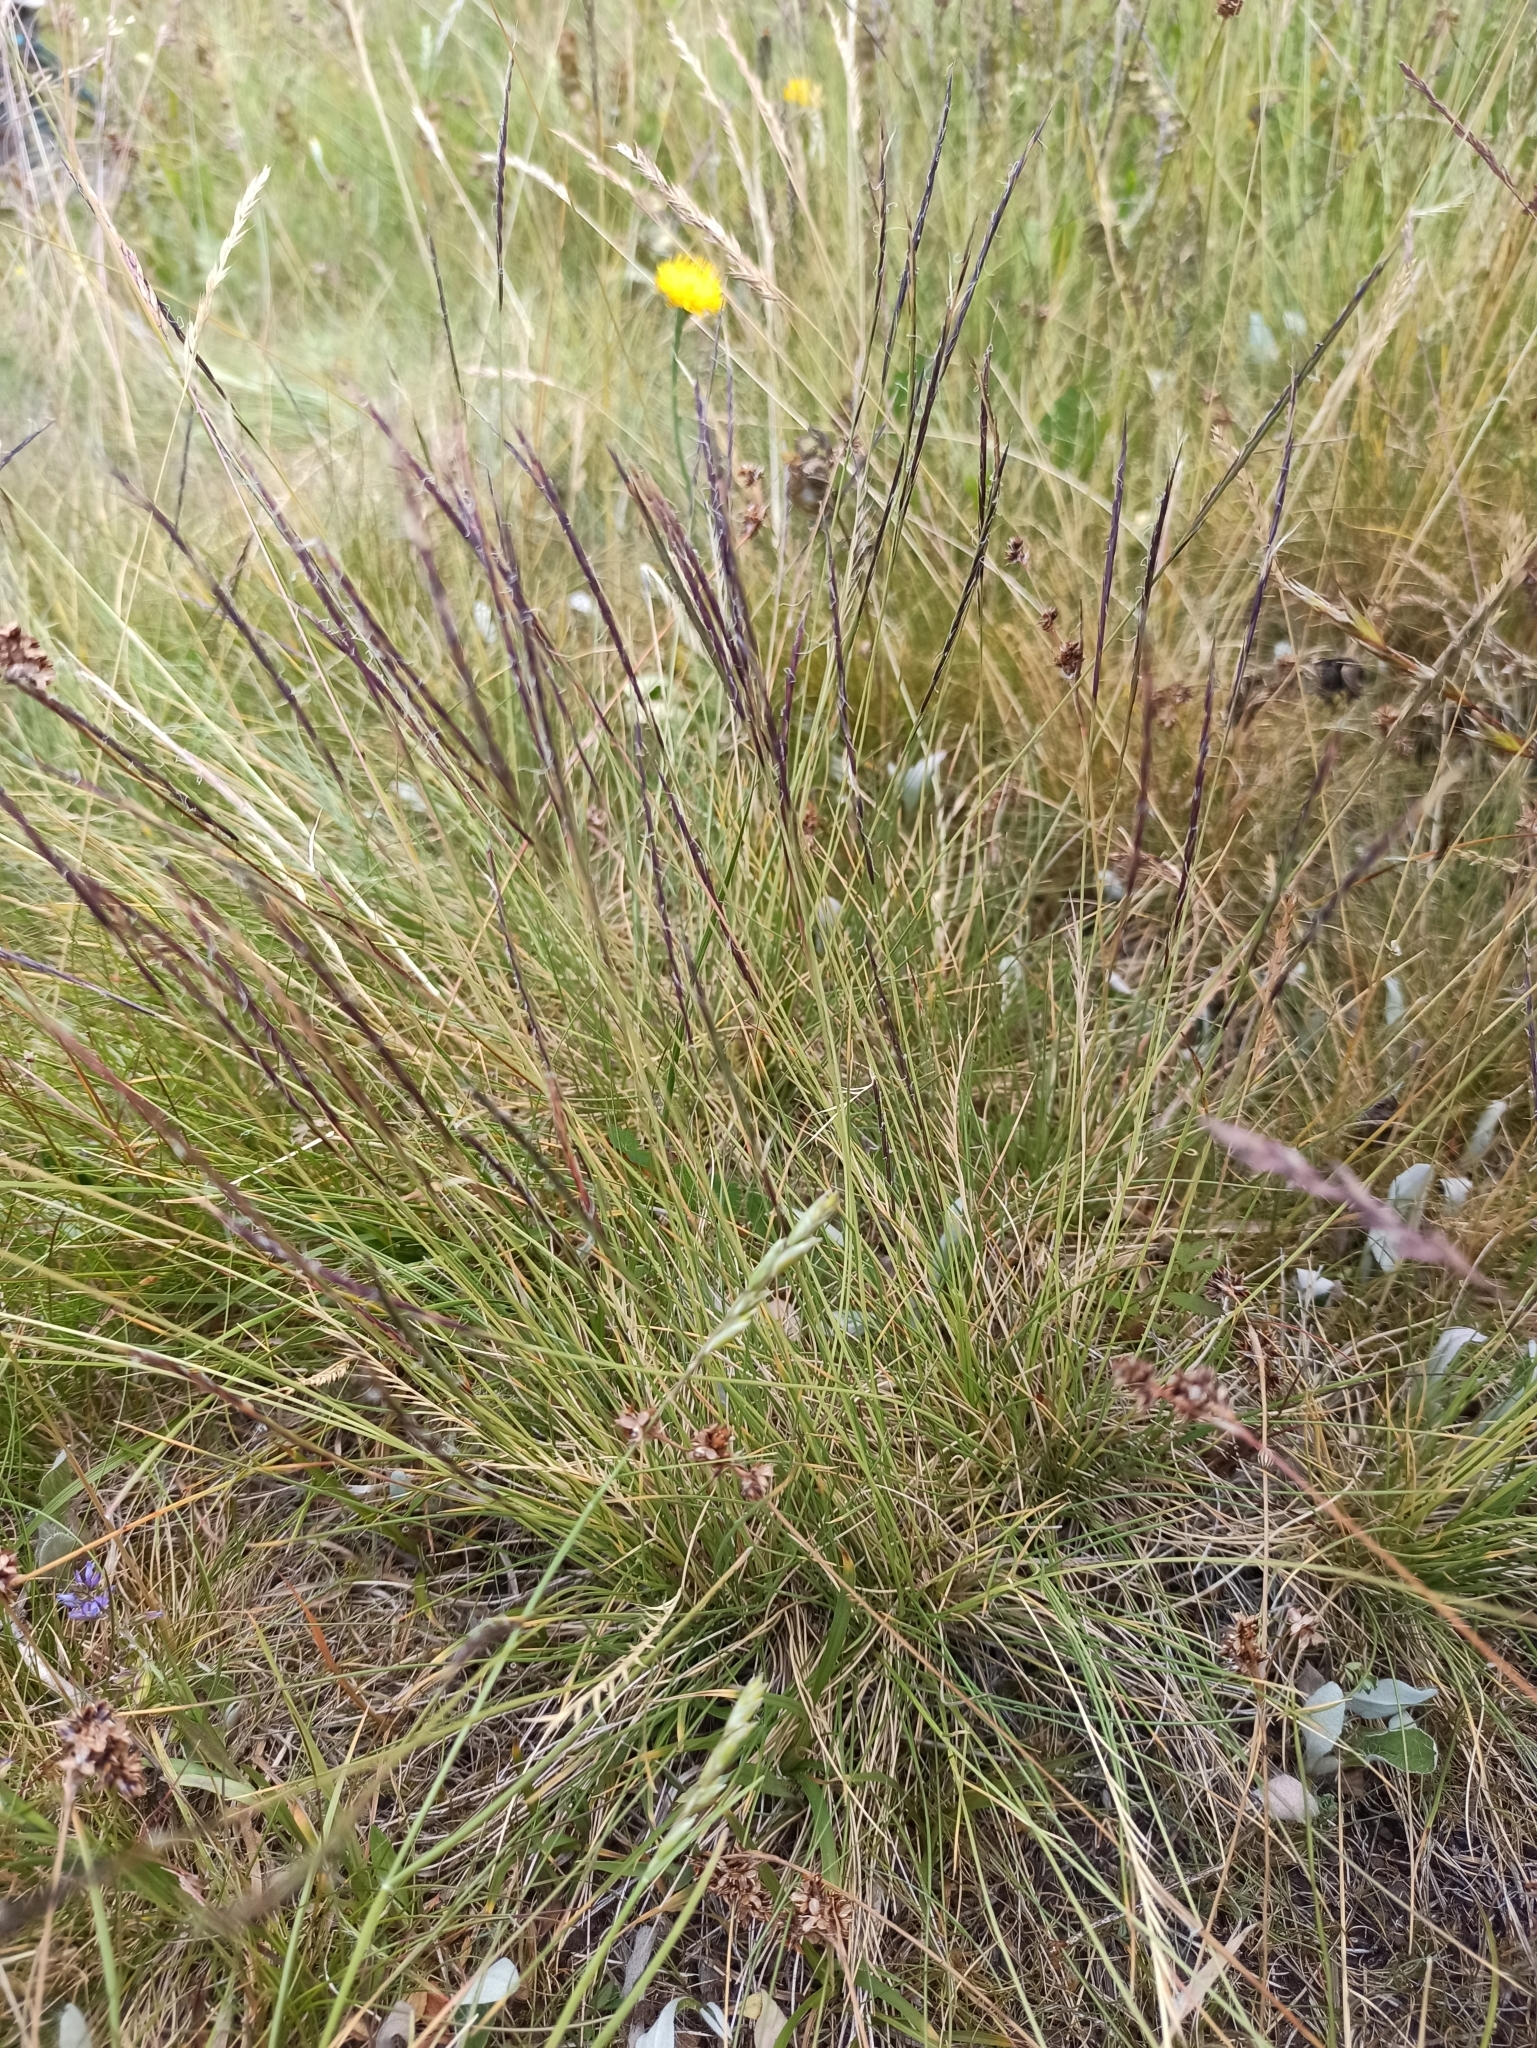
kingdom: Plantae
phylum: Tracheophyta
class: Liliopsida
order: Poales
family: Poaceae
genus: Nardus
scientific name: Nardus stricta
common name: Mat-grass
